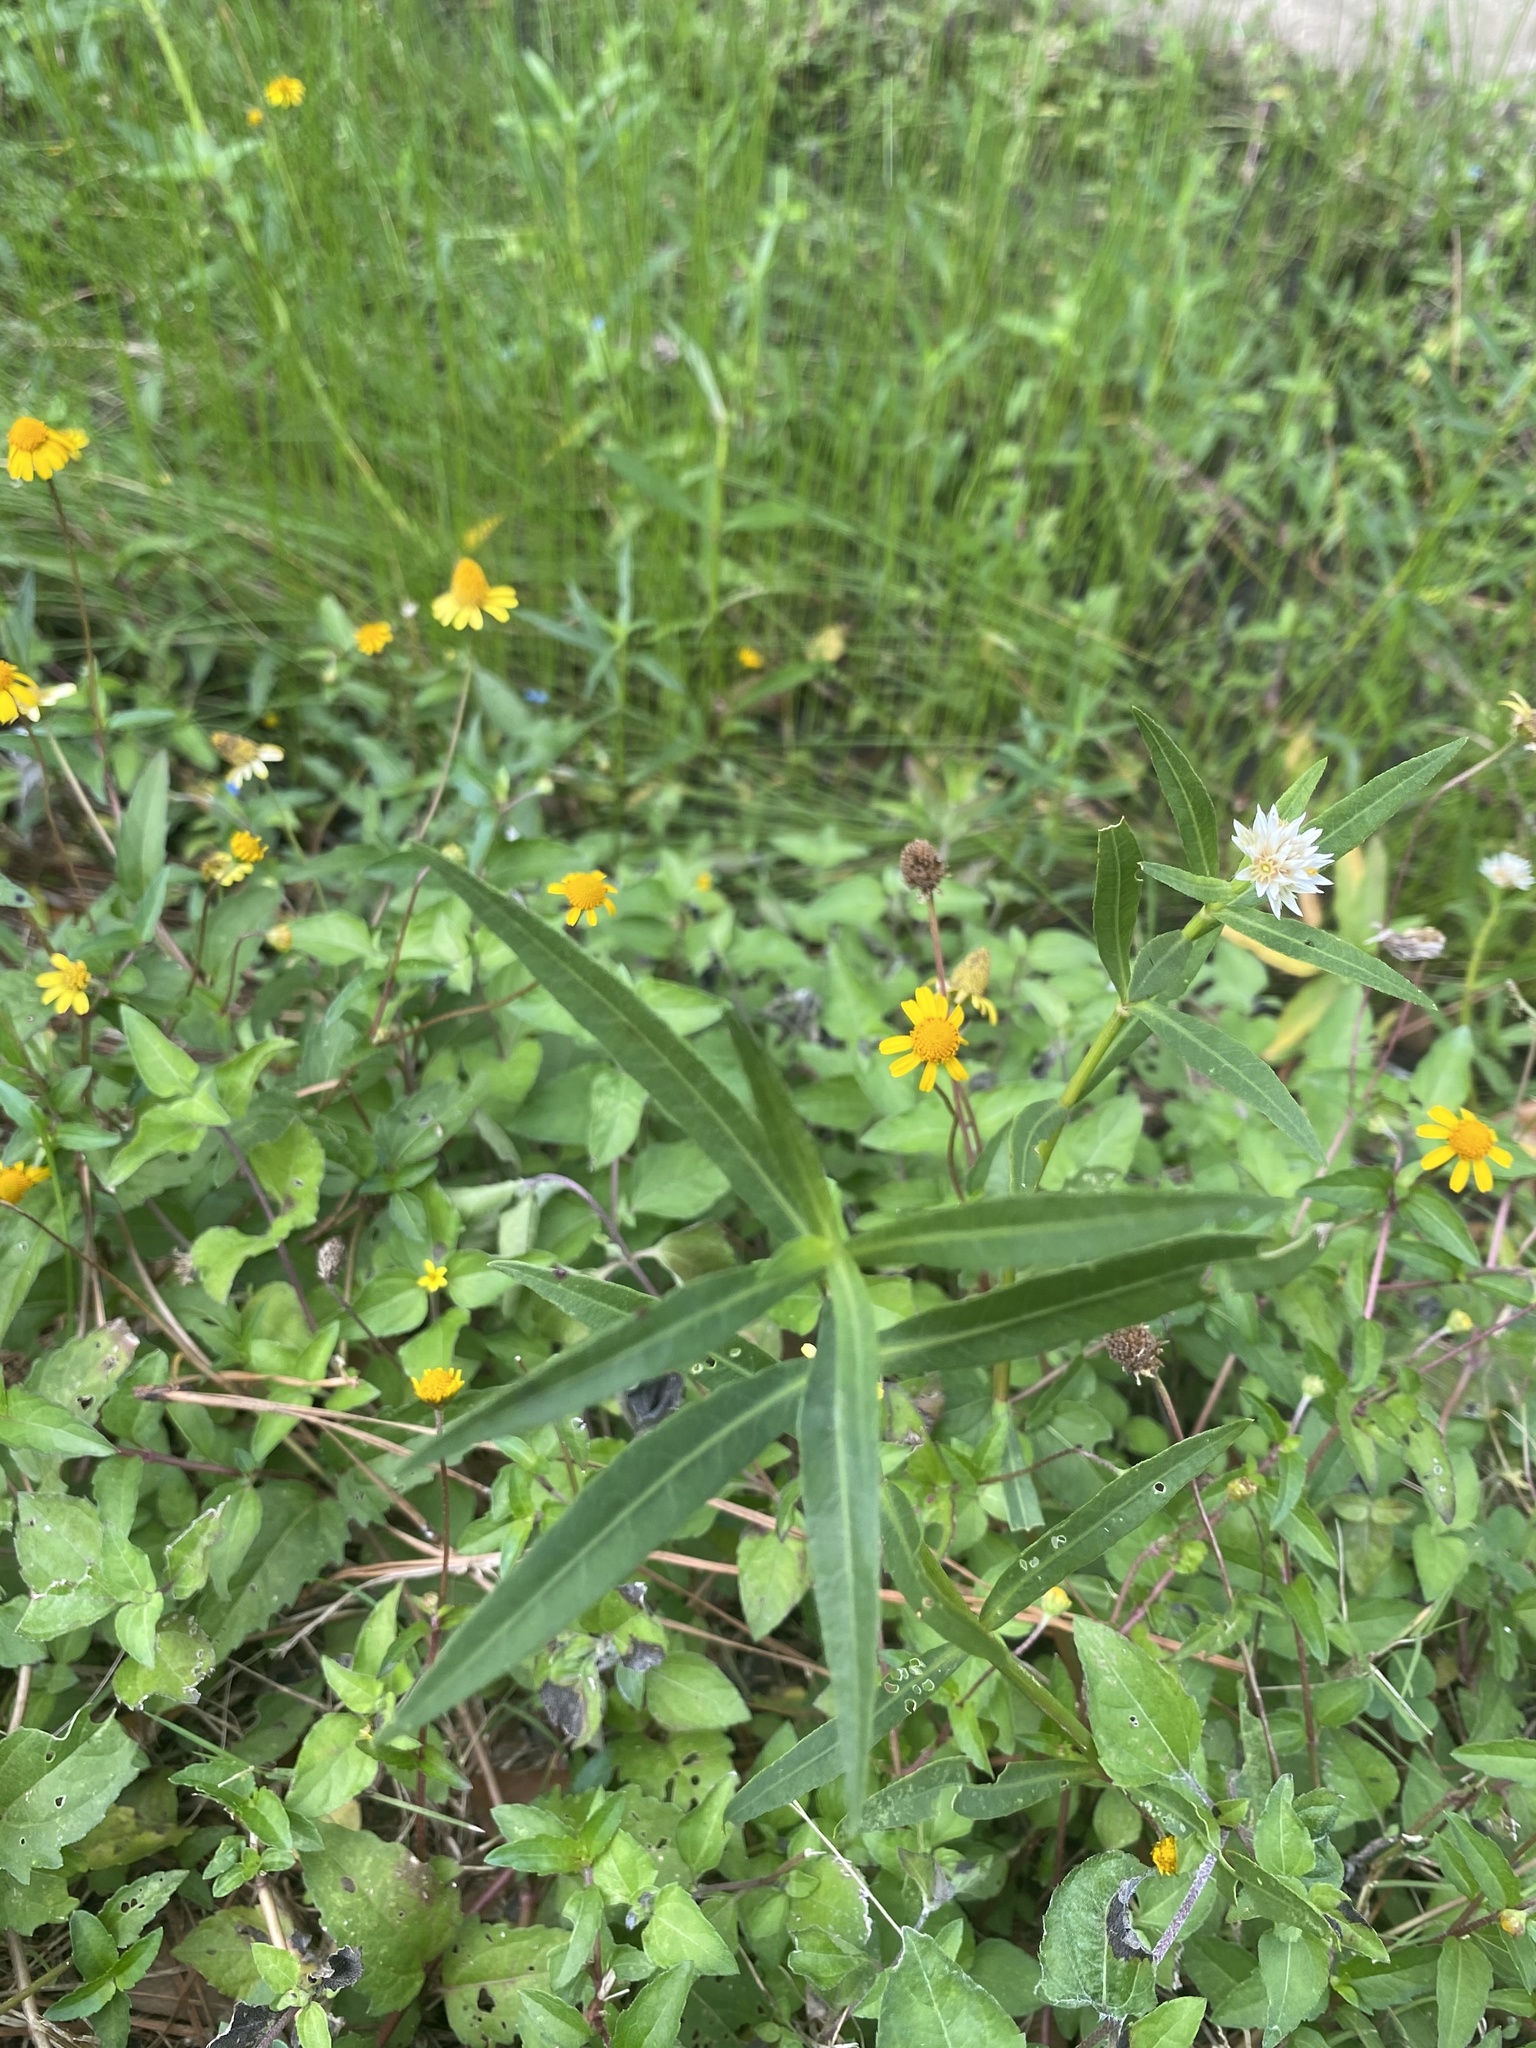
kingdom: Plantae
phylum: Tracheophyta
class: Magnoliopsida
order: Caryophyllales
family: Amaranthaceae
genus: Alternanthera
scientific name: Alternanthera philoxeroides
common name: Alligatorweed
